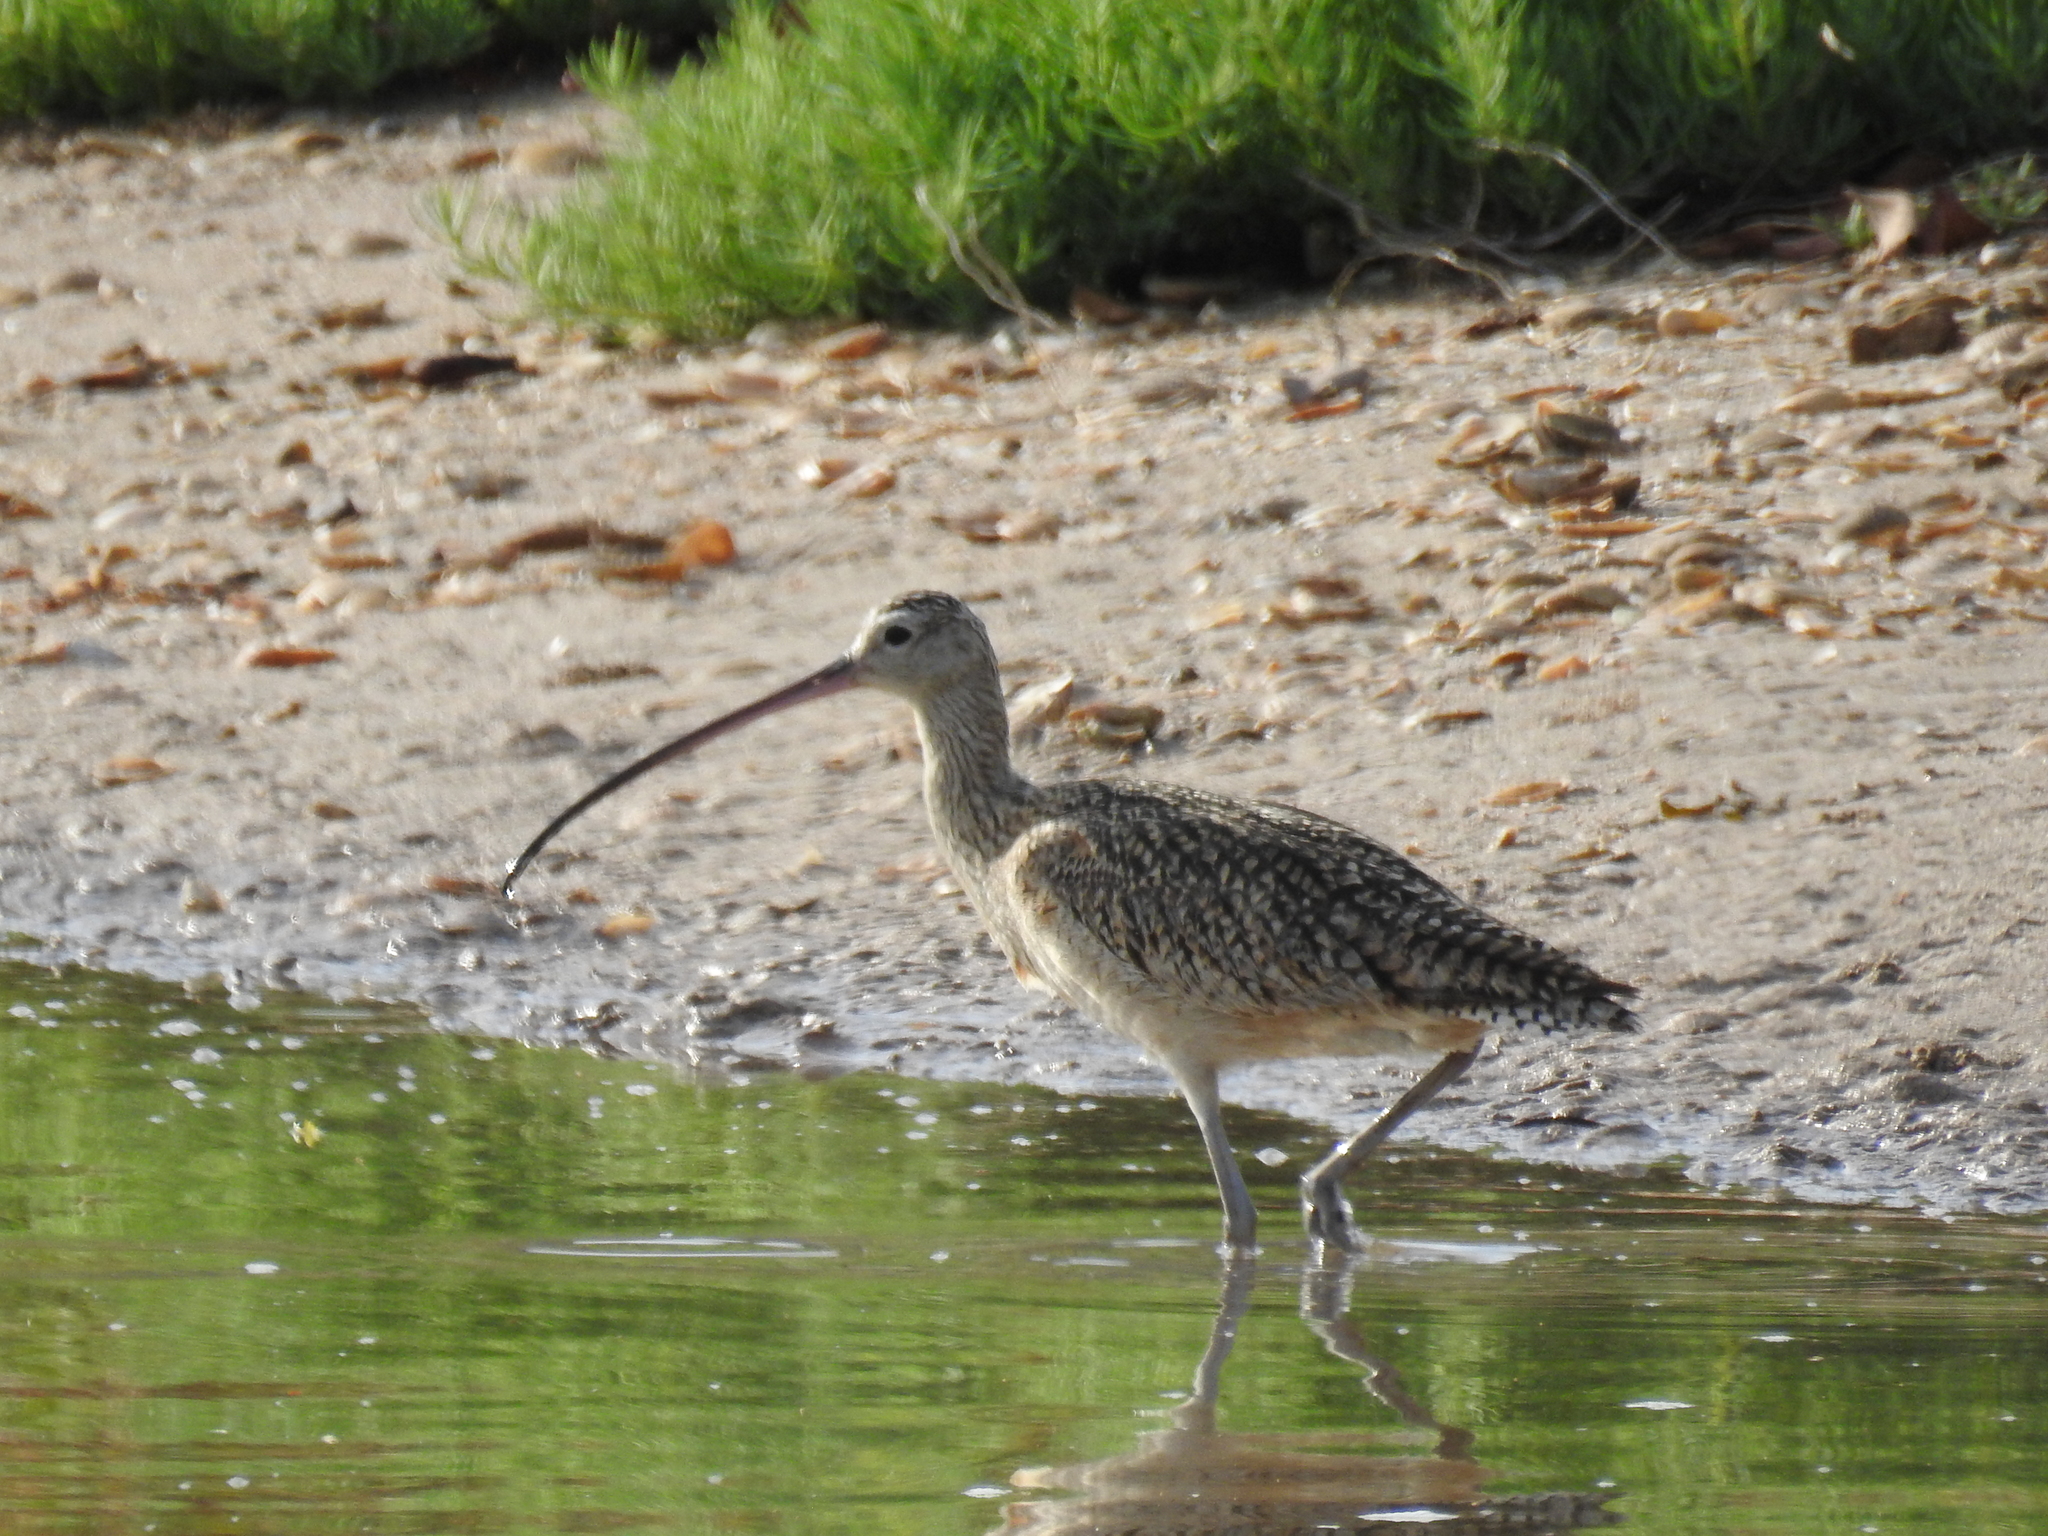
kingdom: Animalia
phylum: Chordata
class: Aves
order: Charadriiformes
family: Scolopacidae
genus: Numenius
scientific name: Numenius americanus
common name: Long-billed curlew
